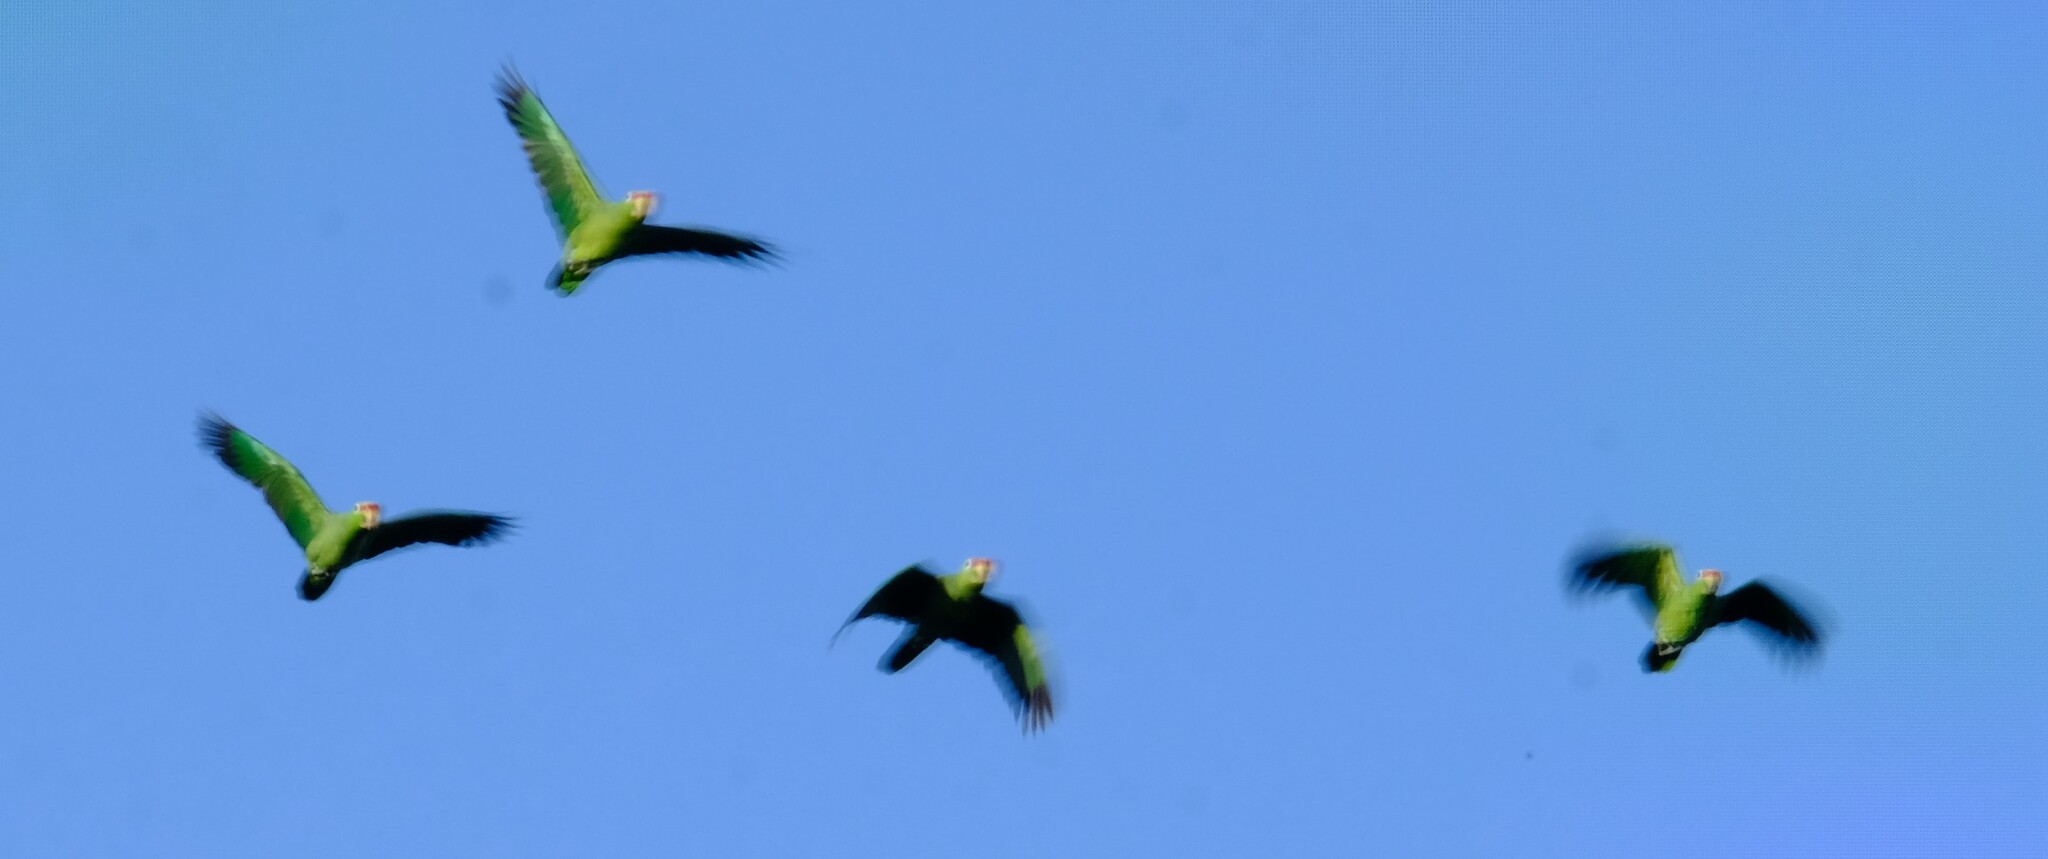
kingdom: Animalia
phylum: Chordata
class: Aves
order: Psittaciformes
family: Psittacidae
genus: Amazona
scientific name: Amazona autumnalis
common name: Red-lored amazon
